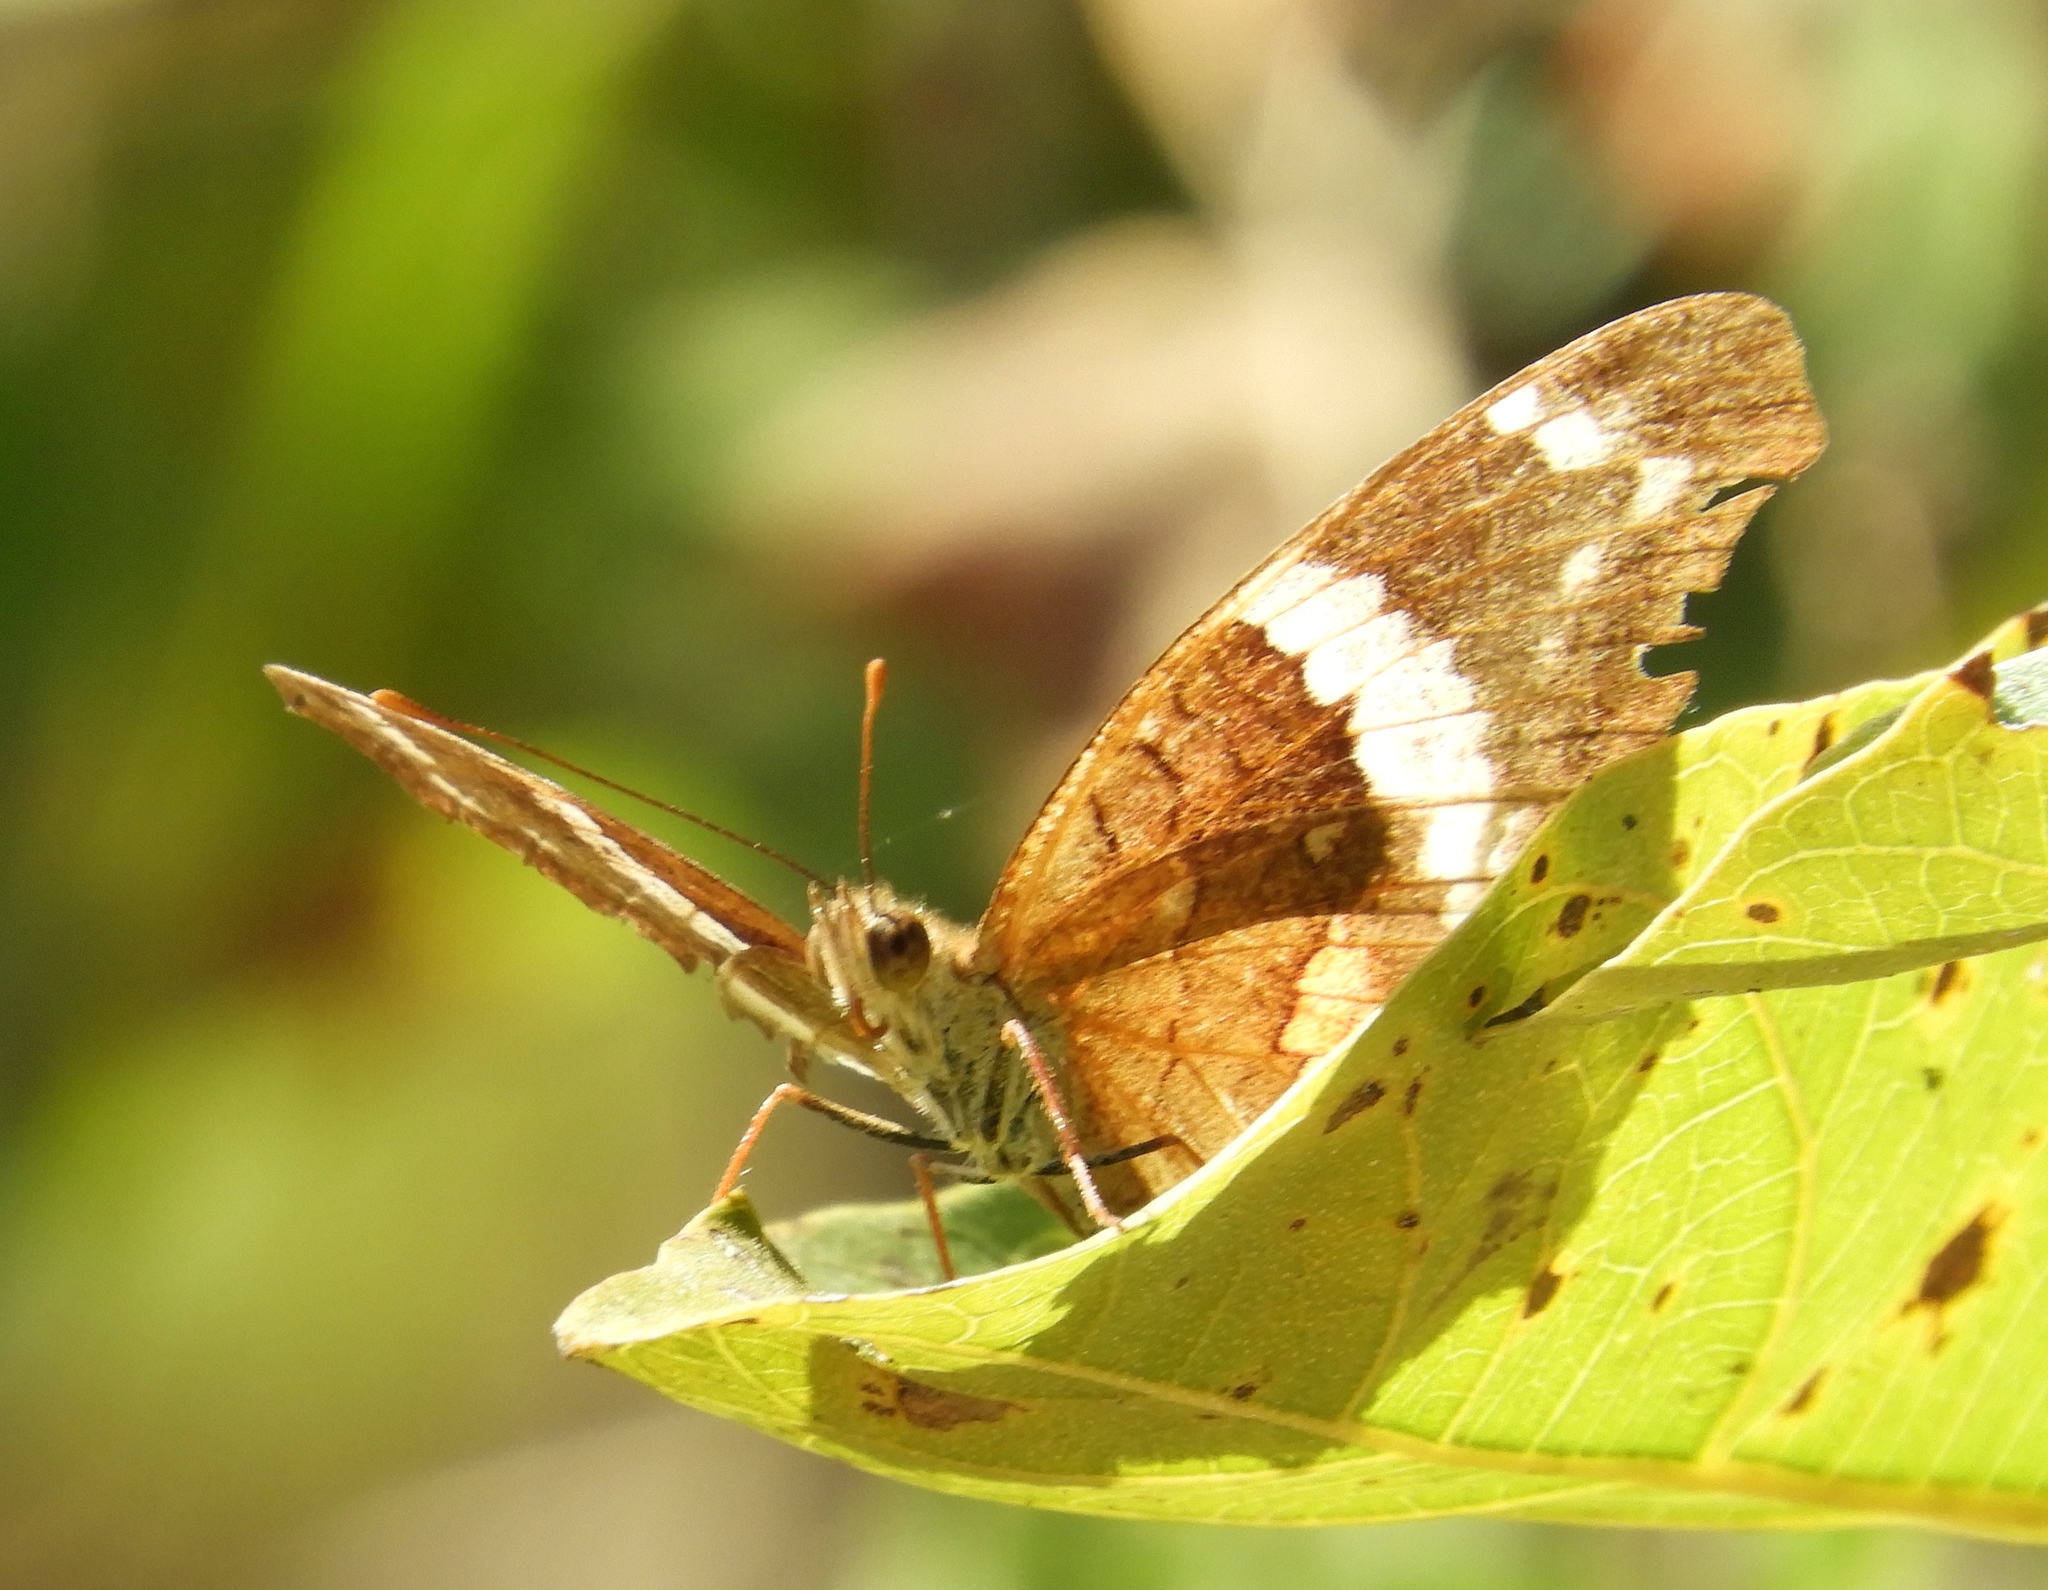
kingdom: Animalia
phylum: Arthropoda
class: Insecta
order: Lepidoptera
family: Nymphalidae
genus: Anartia
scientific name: Anartia fatima
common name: Banded peacock
